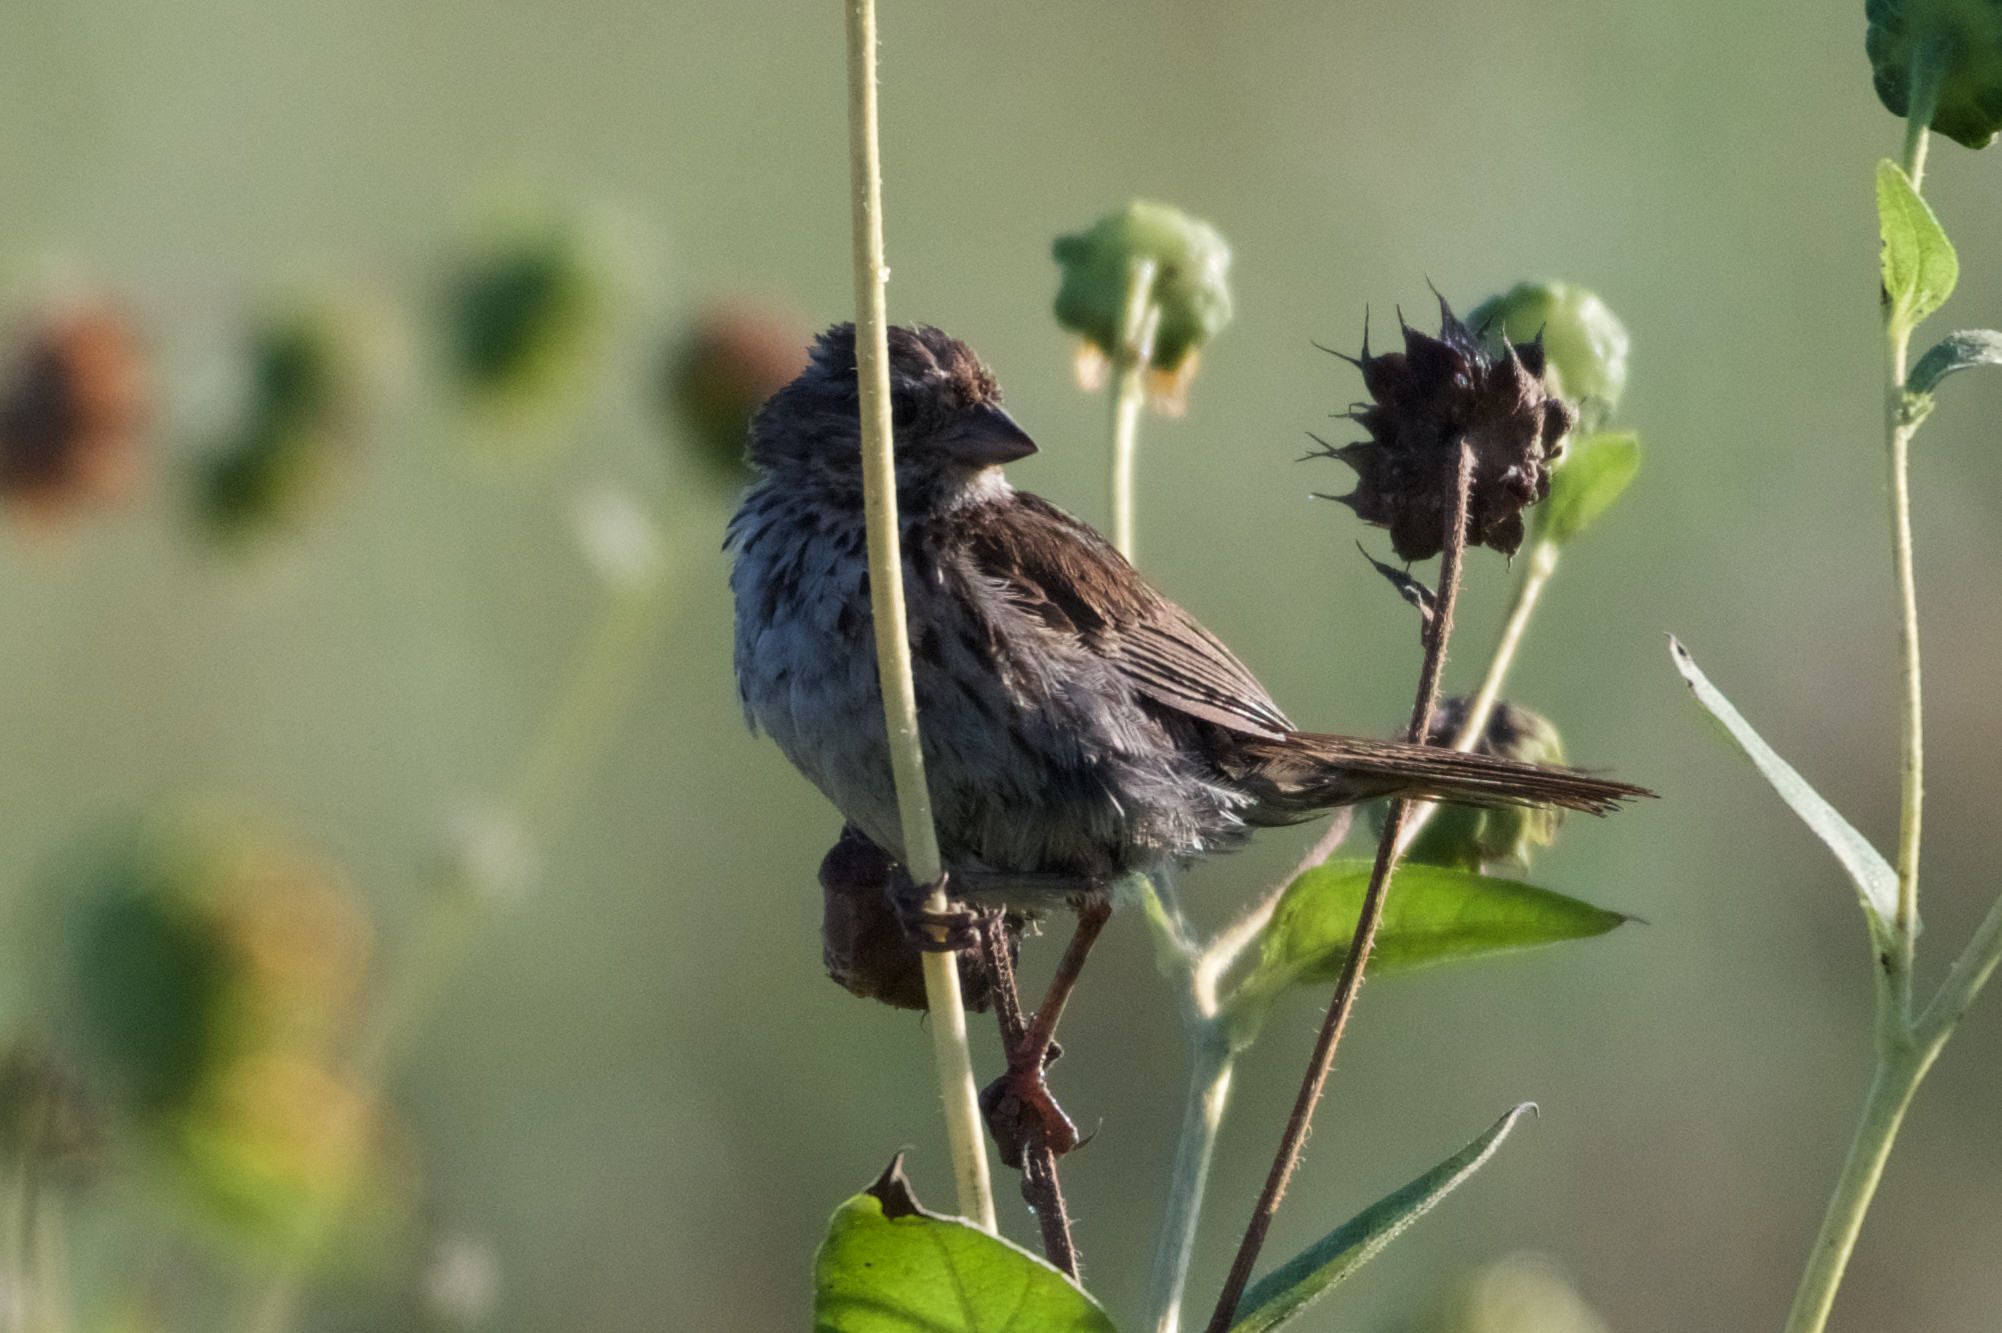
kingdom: Animalia
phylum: Chordata
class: Aves
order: Passeriformes
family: Passerellidae
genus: Melospiza
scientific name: Melospiza melodia
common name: Song sparrow
